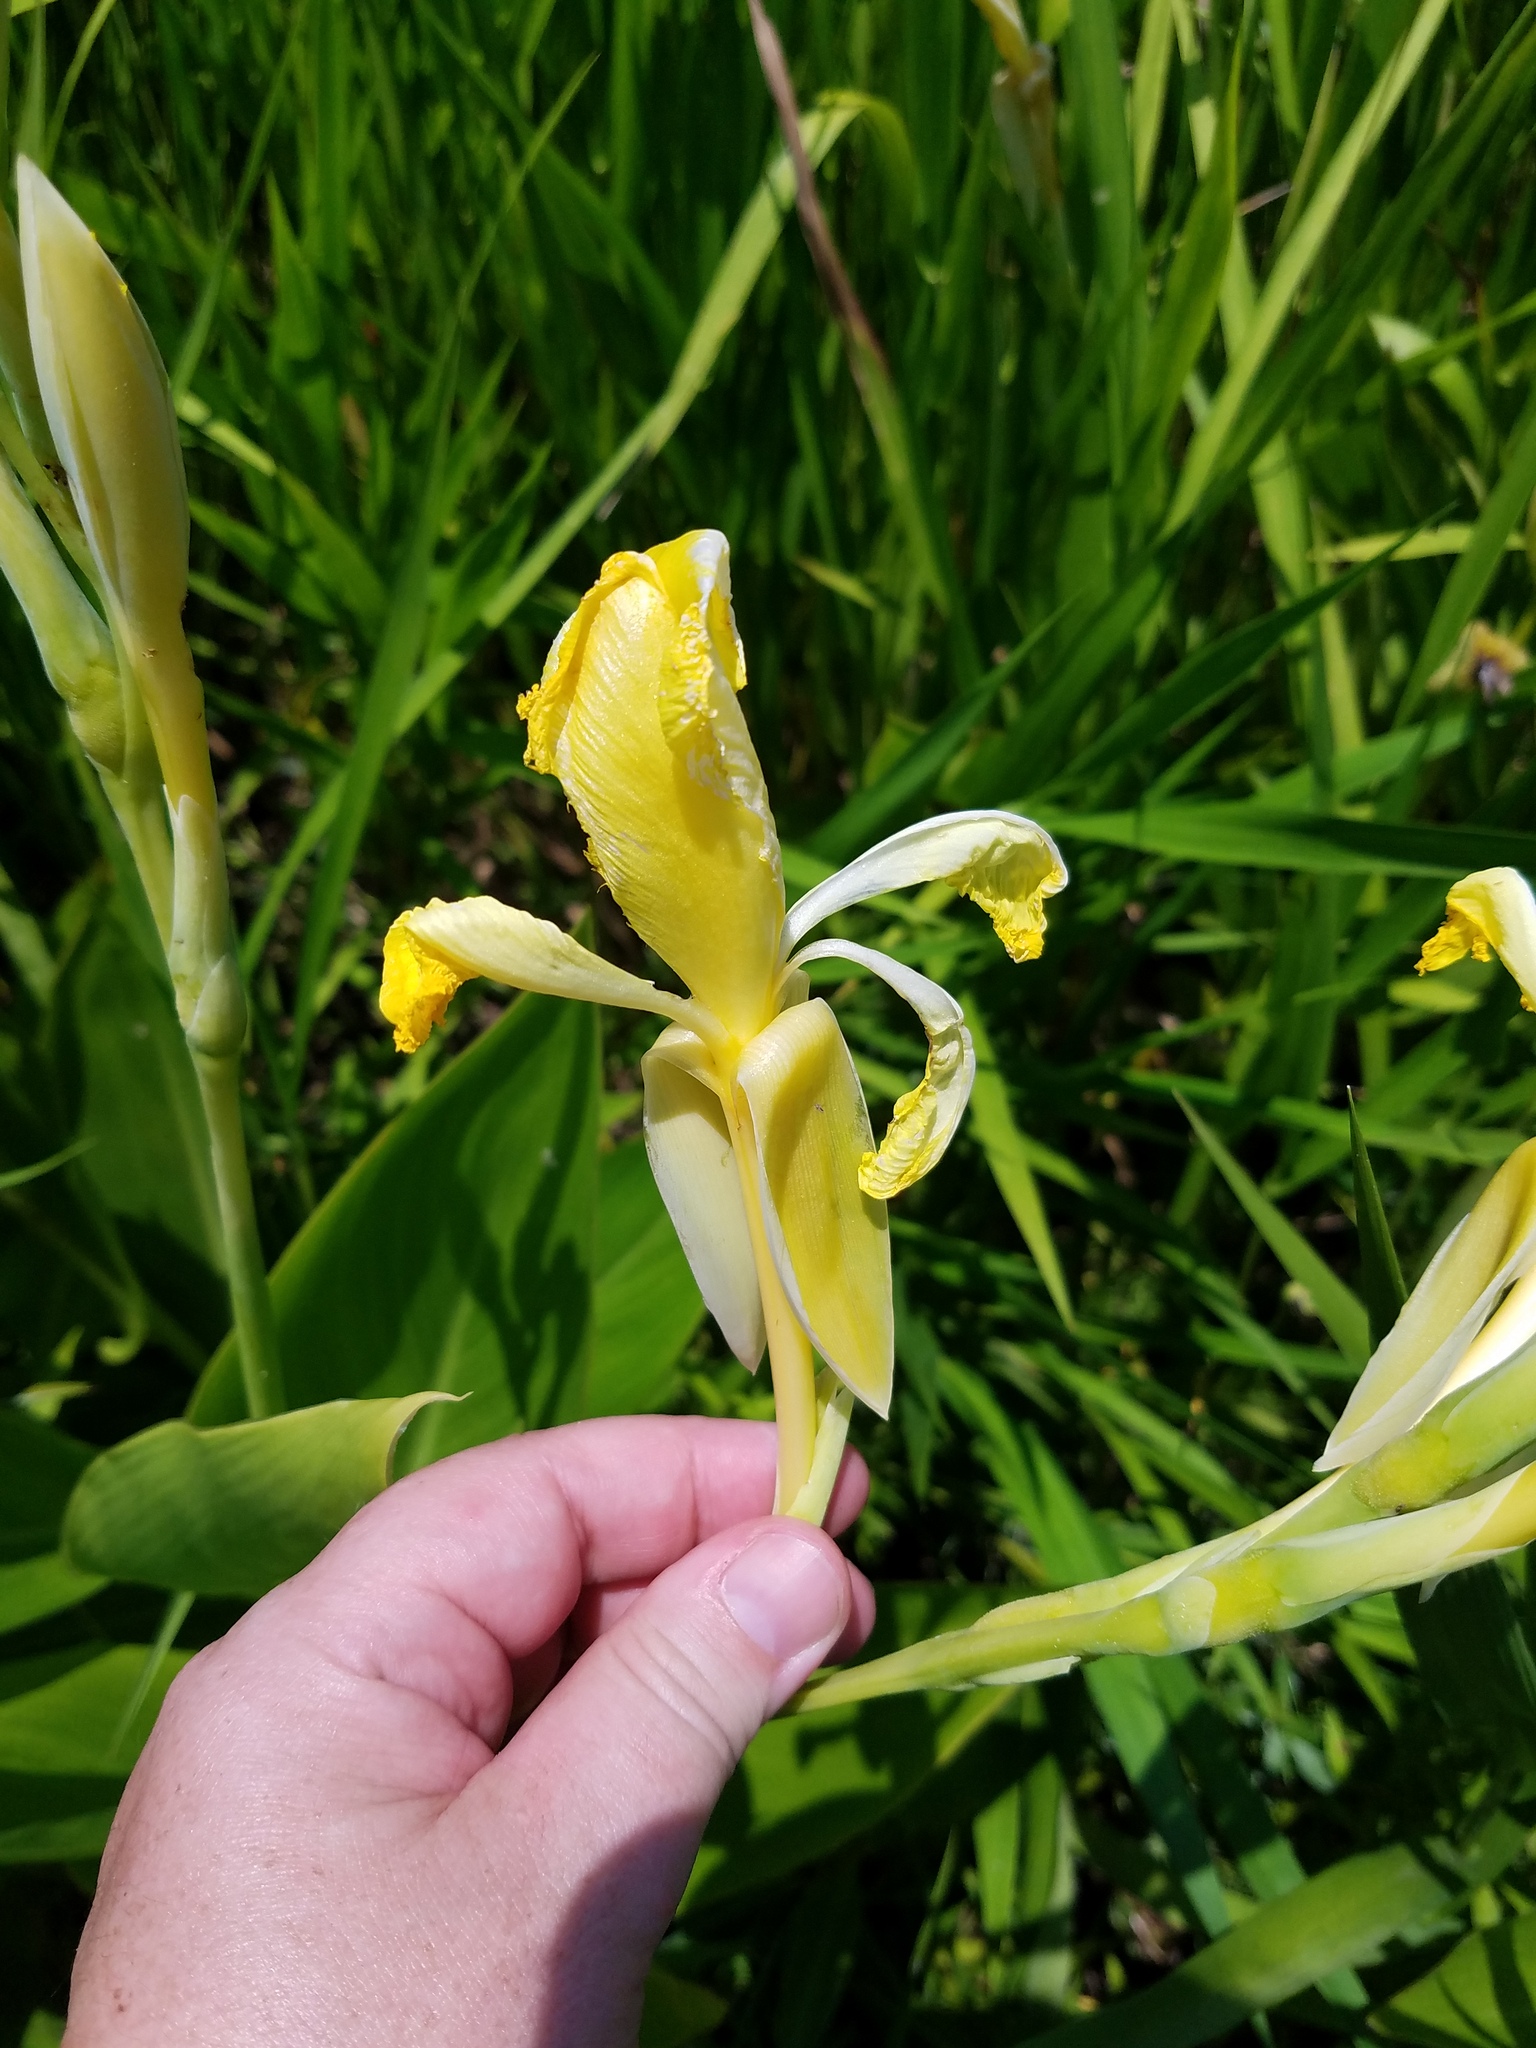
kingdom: Plantae
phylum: Tracheophyta
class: Liliopsida
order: Zingiberales
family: Cannaceae
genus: Canna
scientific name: Canna flaccida
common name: Bandana-of-the-everglades
